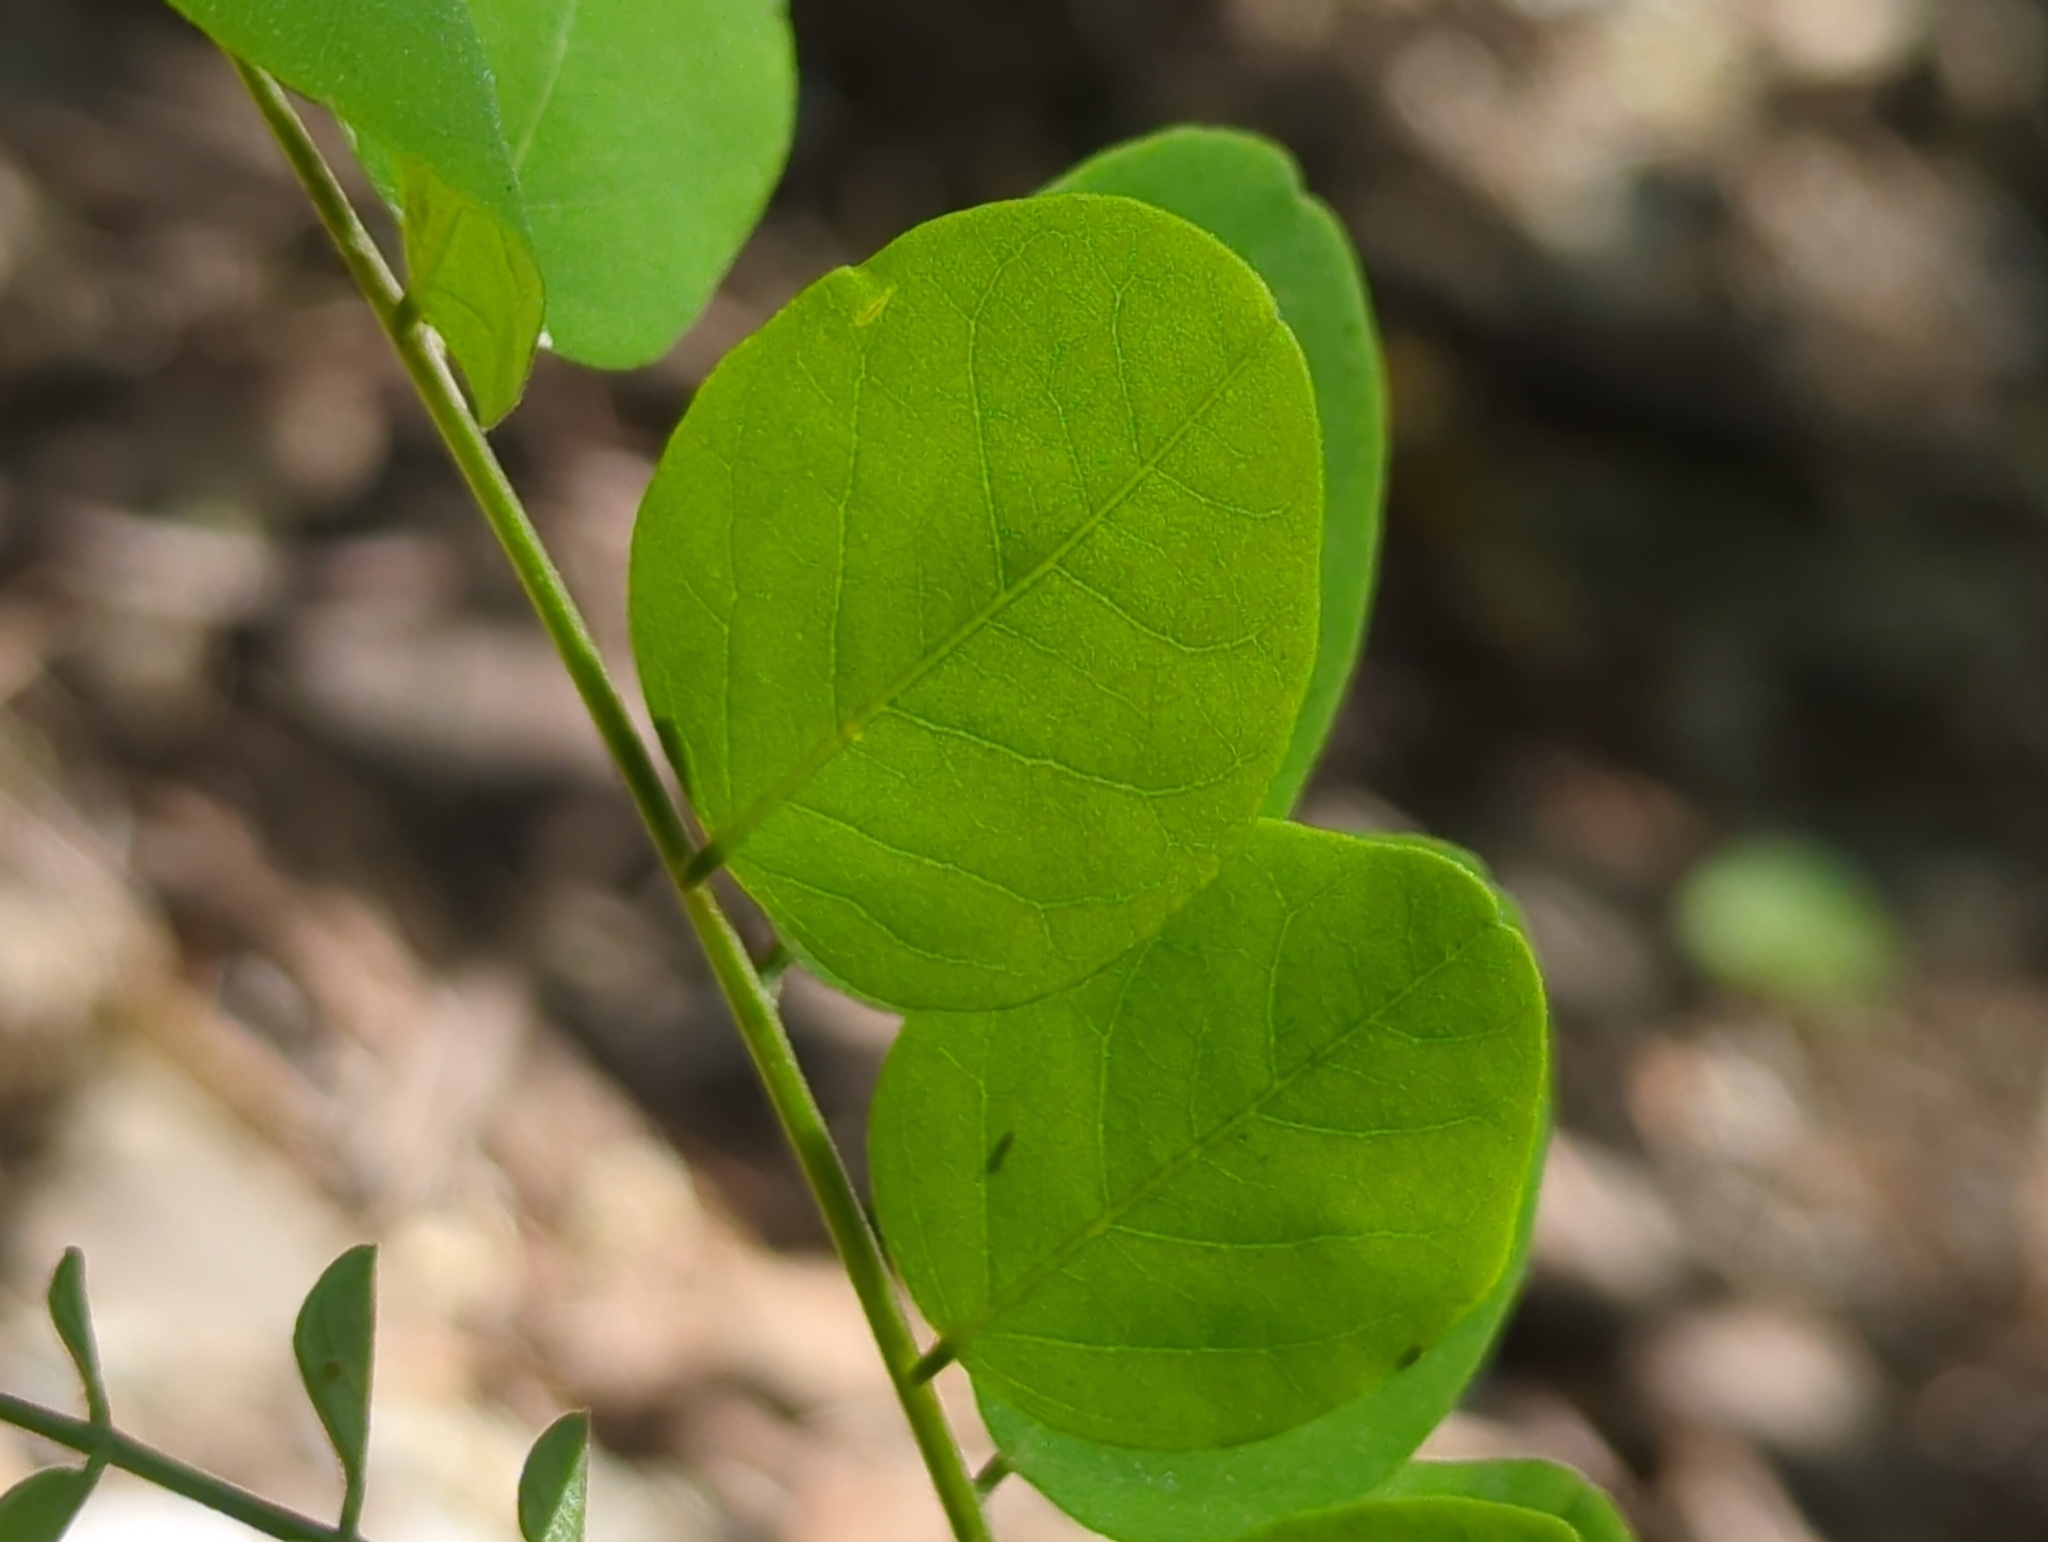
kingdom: Plantae
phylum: Tracheophyta
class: Magnoliopsida
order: Fabales
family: Fabaceae
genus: Robinia
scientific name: Robinia pseudoacacia
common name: Black locust
